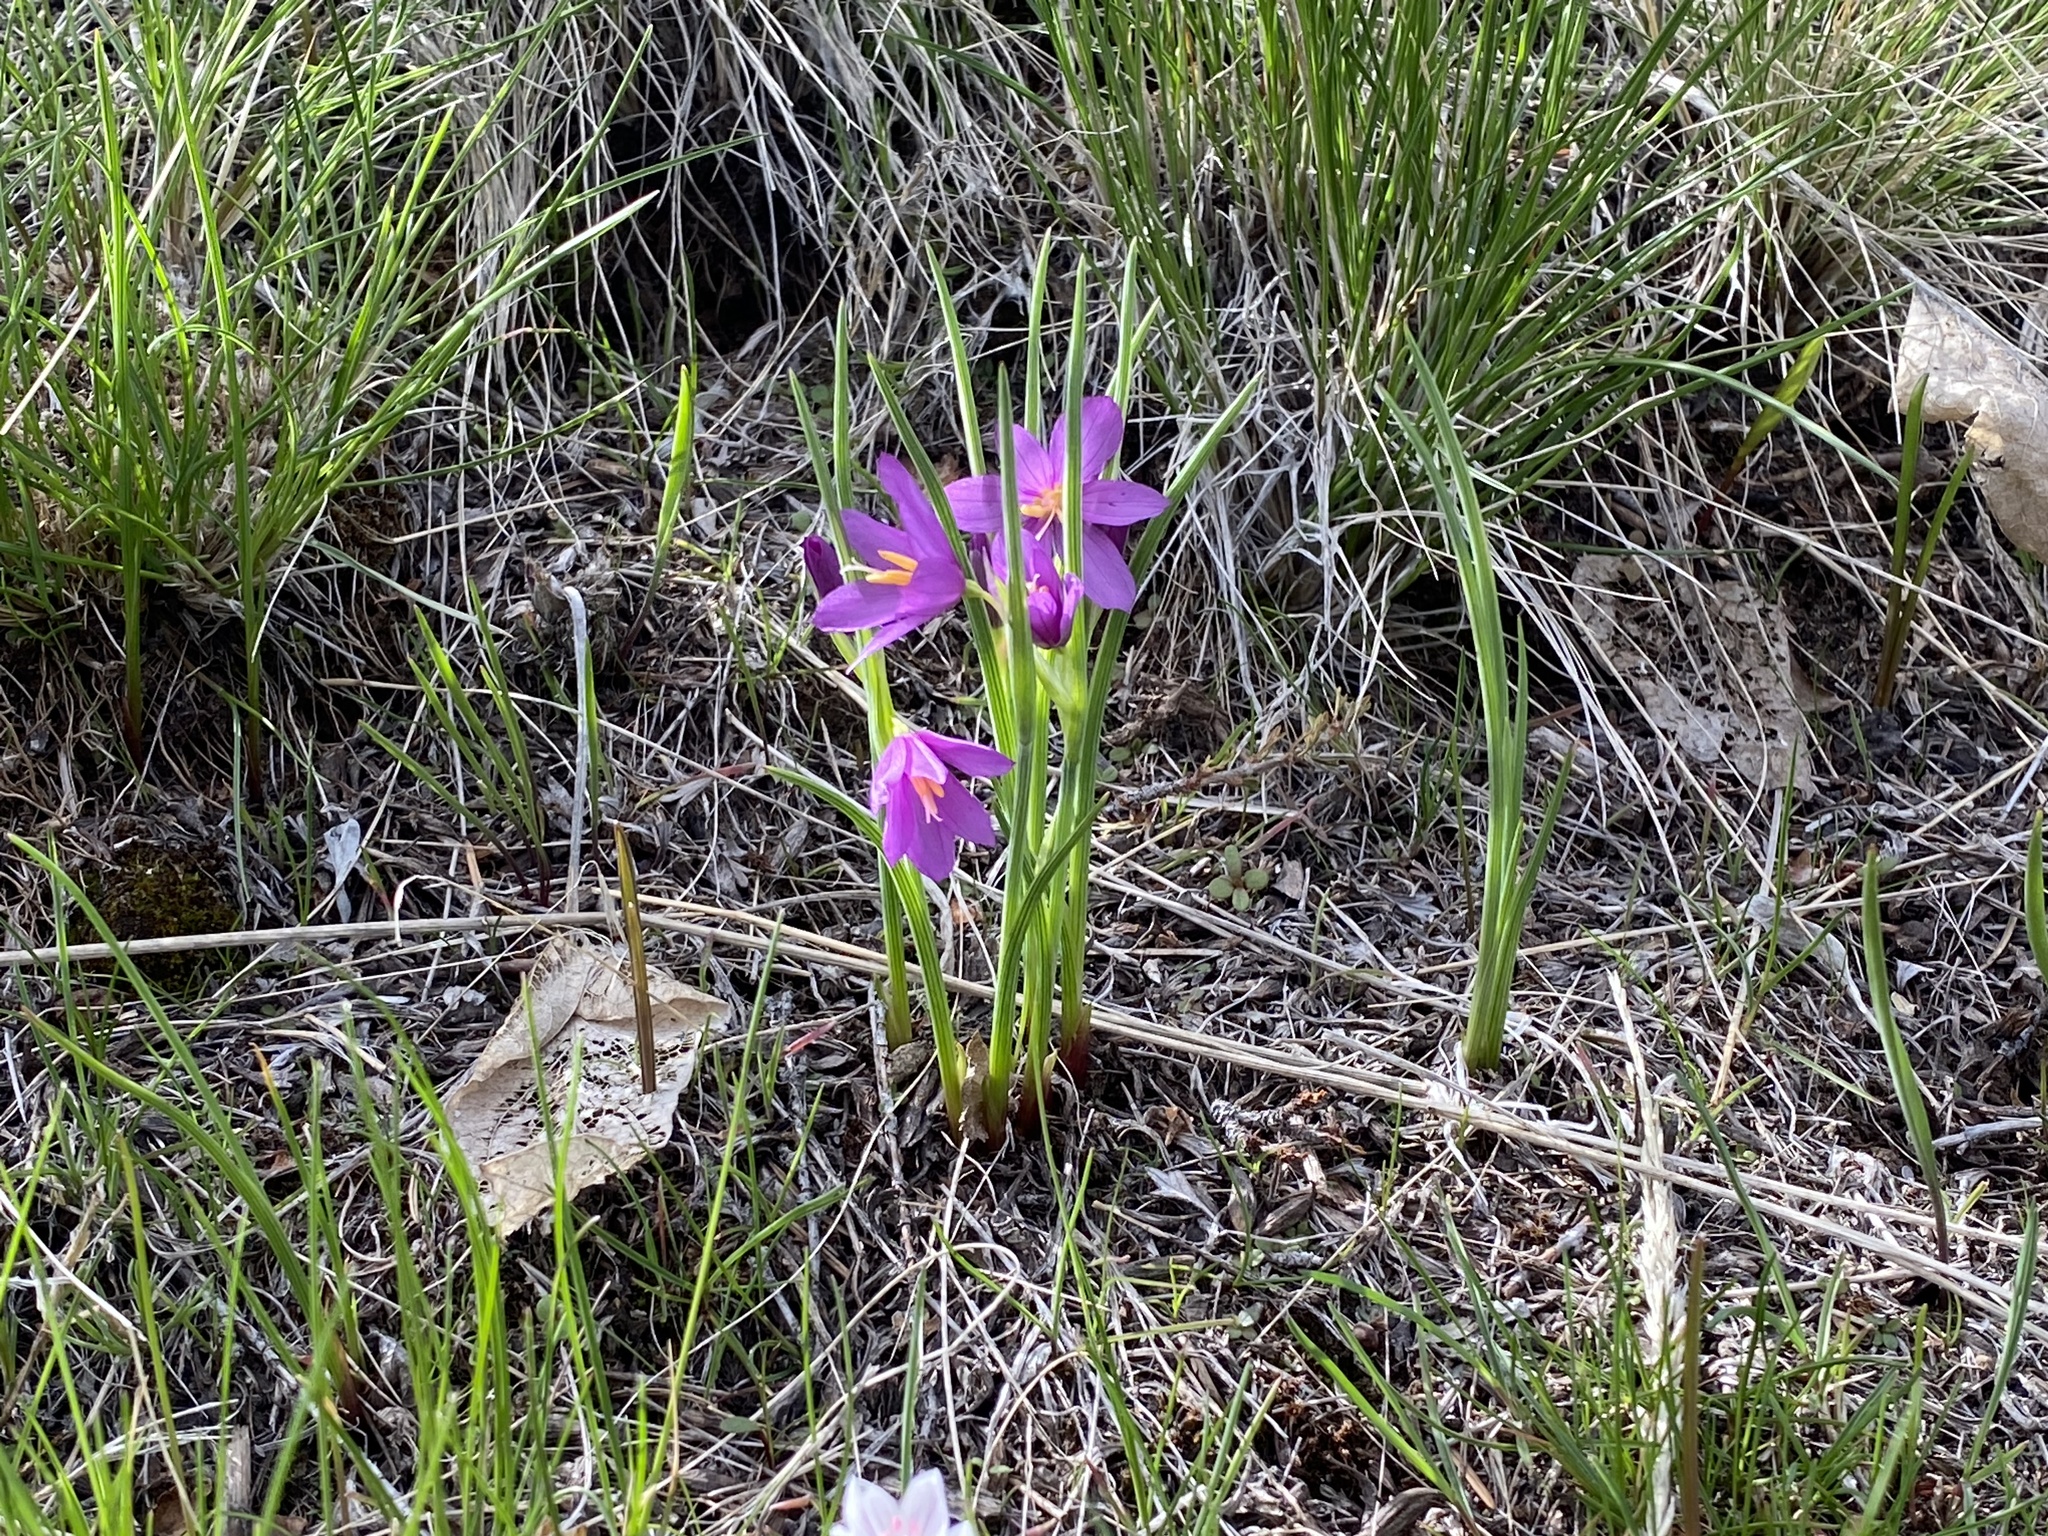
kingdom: Plantae
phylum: Tracheophyta
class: Liliopsida
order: Asparagales
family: Iridaceae
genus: Olsynium
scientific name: Olsynium douglasii
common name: Douglas' grasswidow
